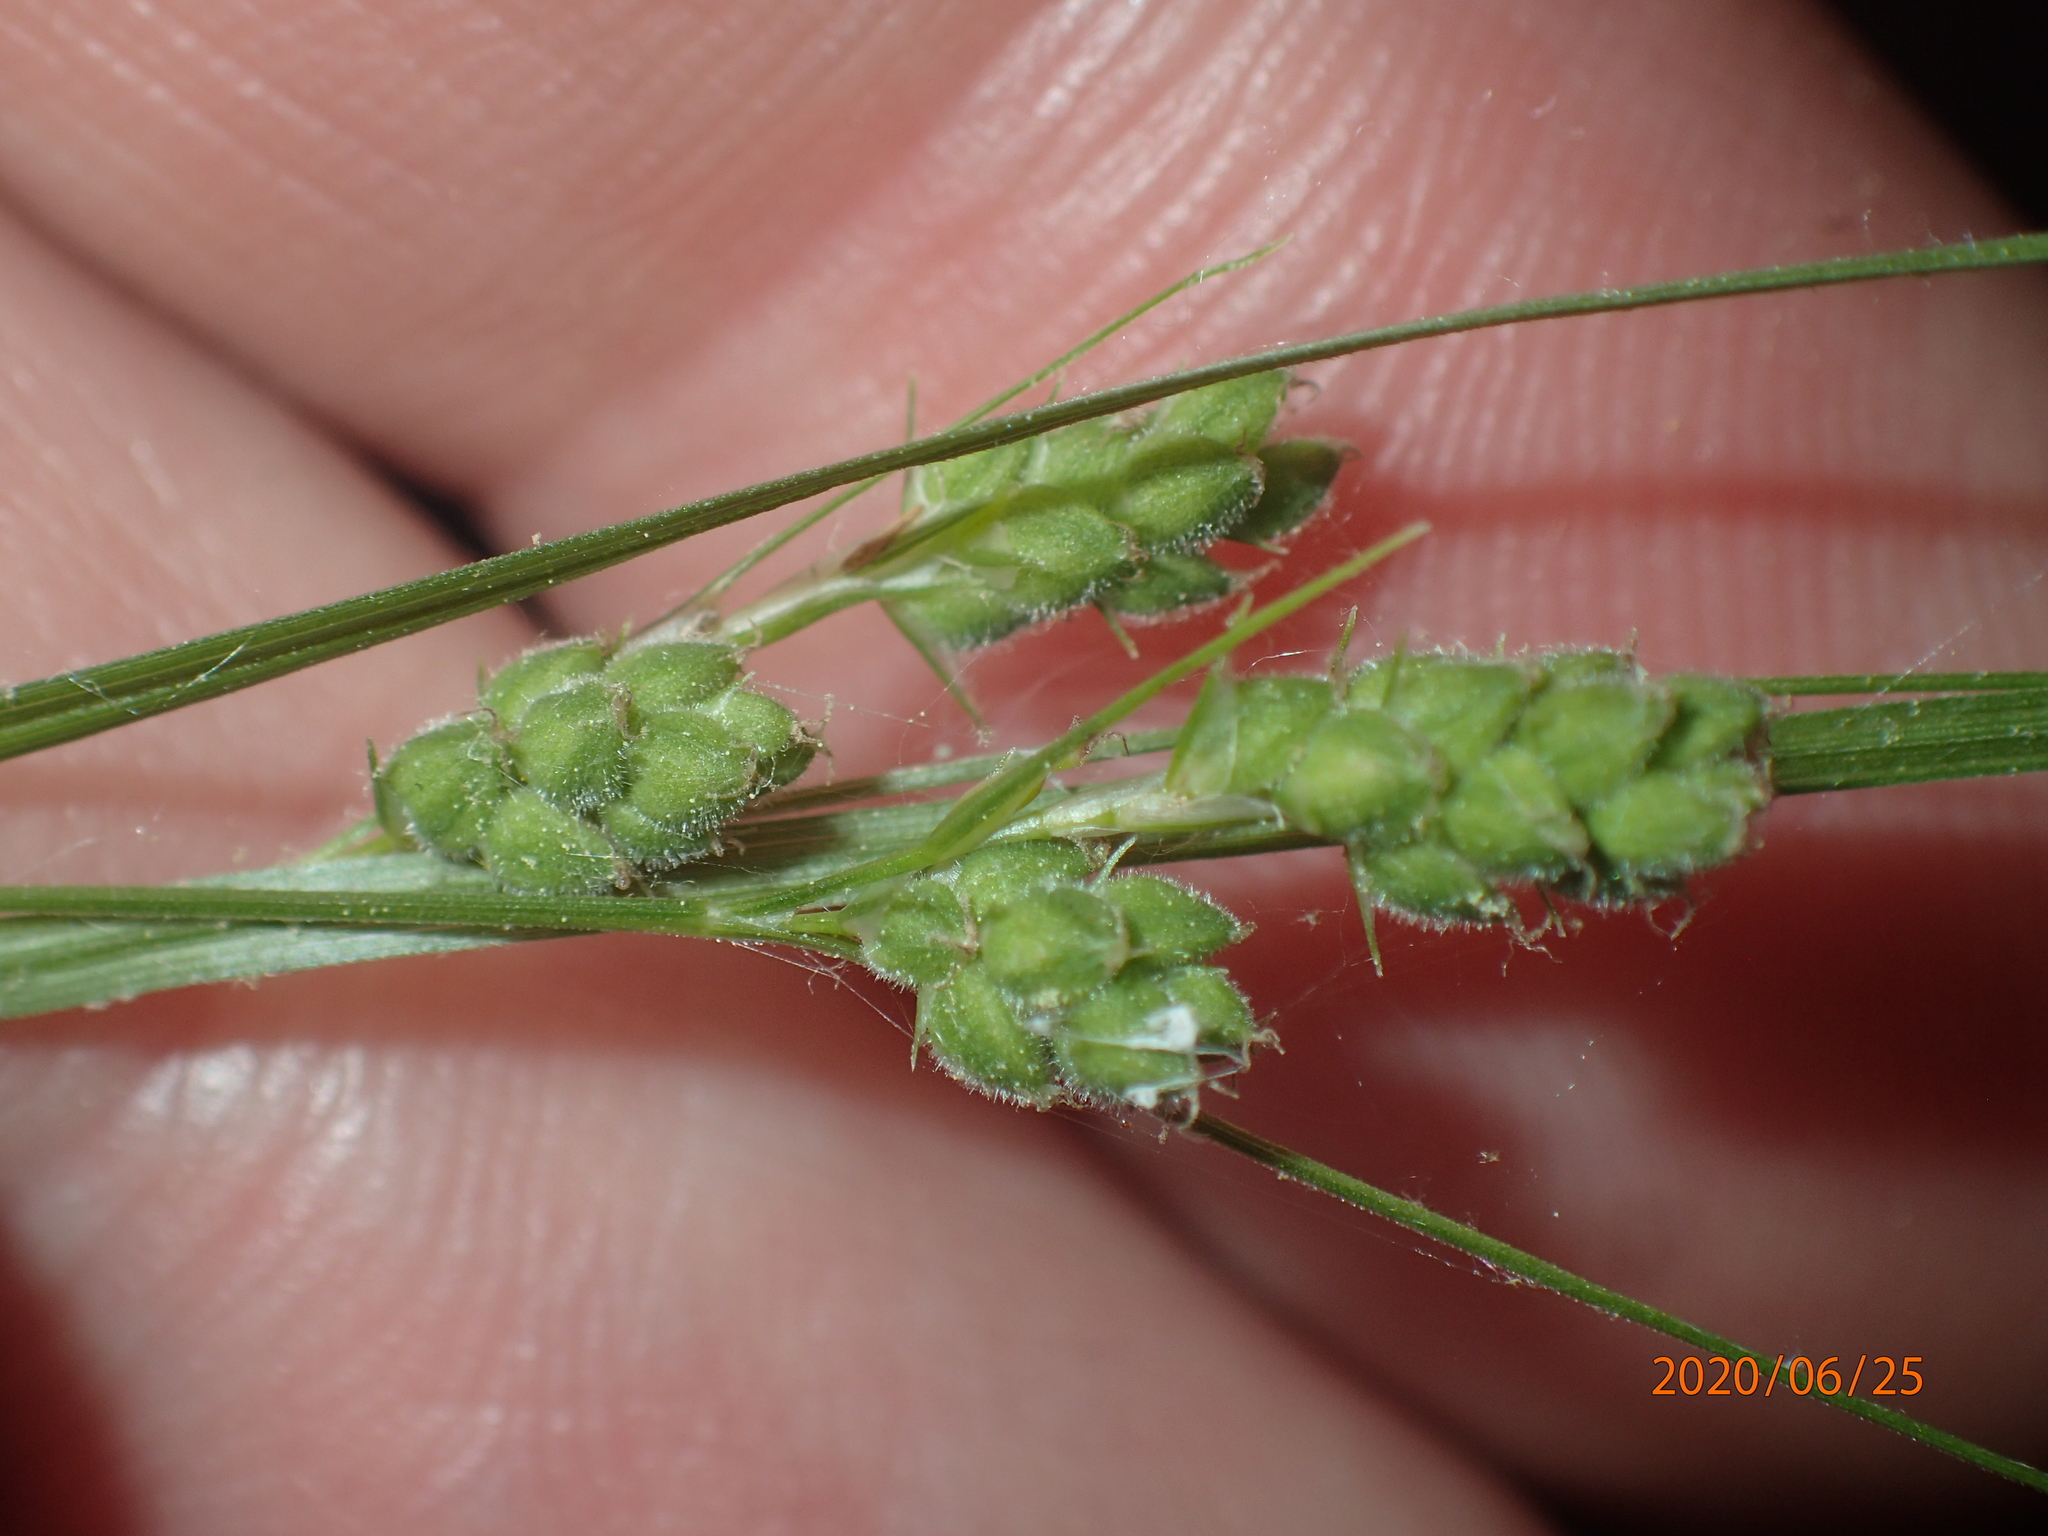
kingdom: Plantae
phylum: Tracheophyta
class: Liliopsida
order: Poales
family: Cyperaceae
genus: Carex
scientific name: Carex swanii
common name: Downy green sedge
